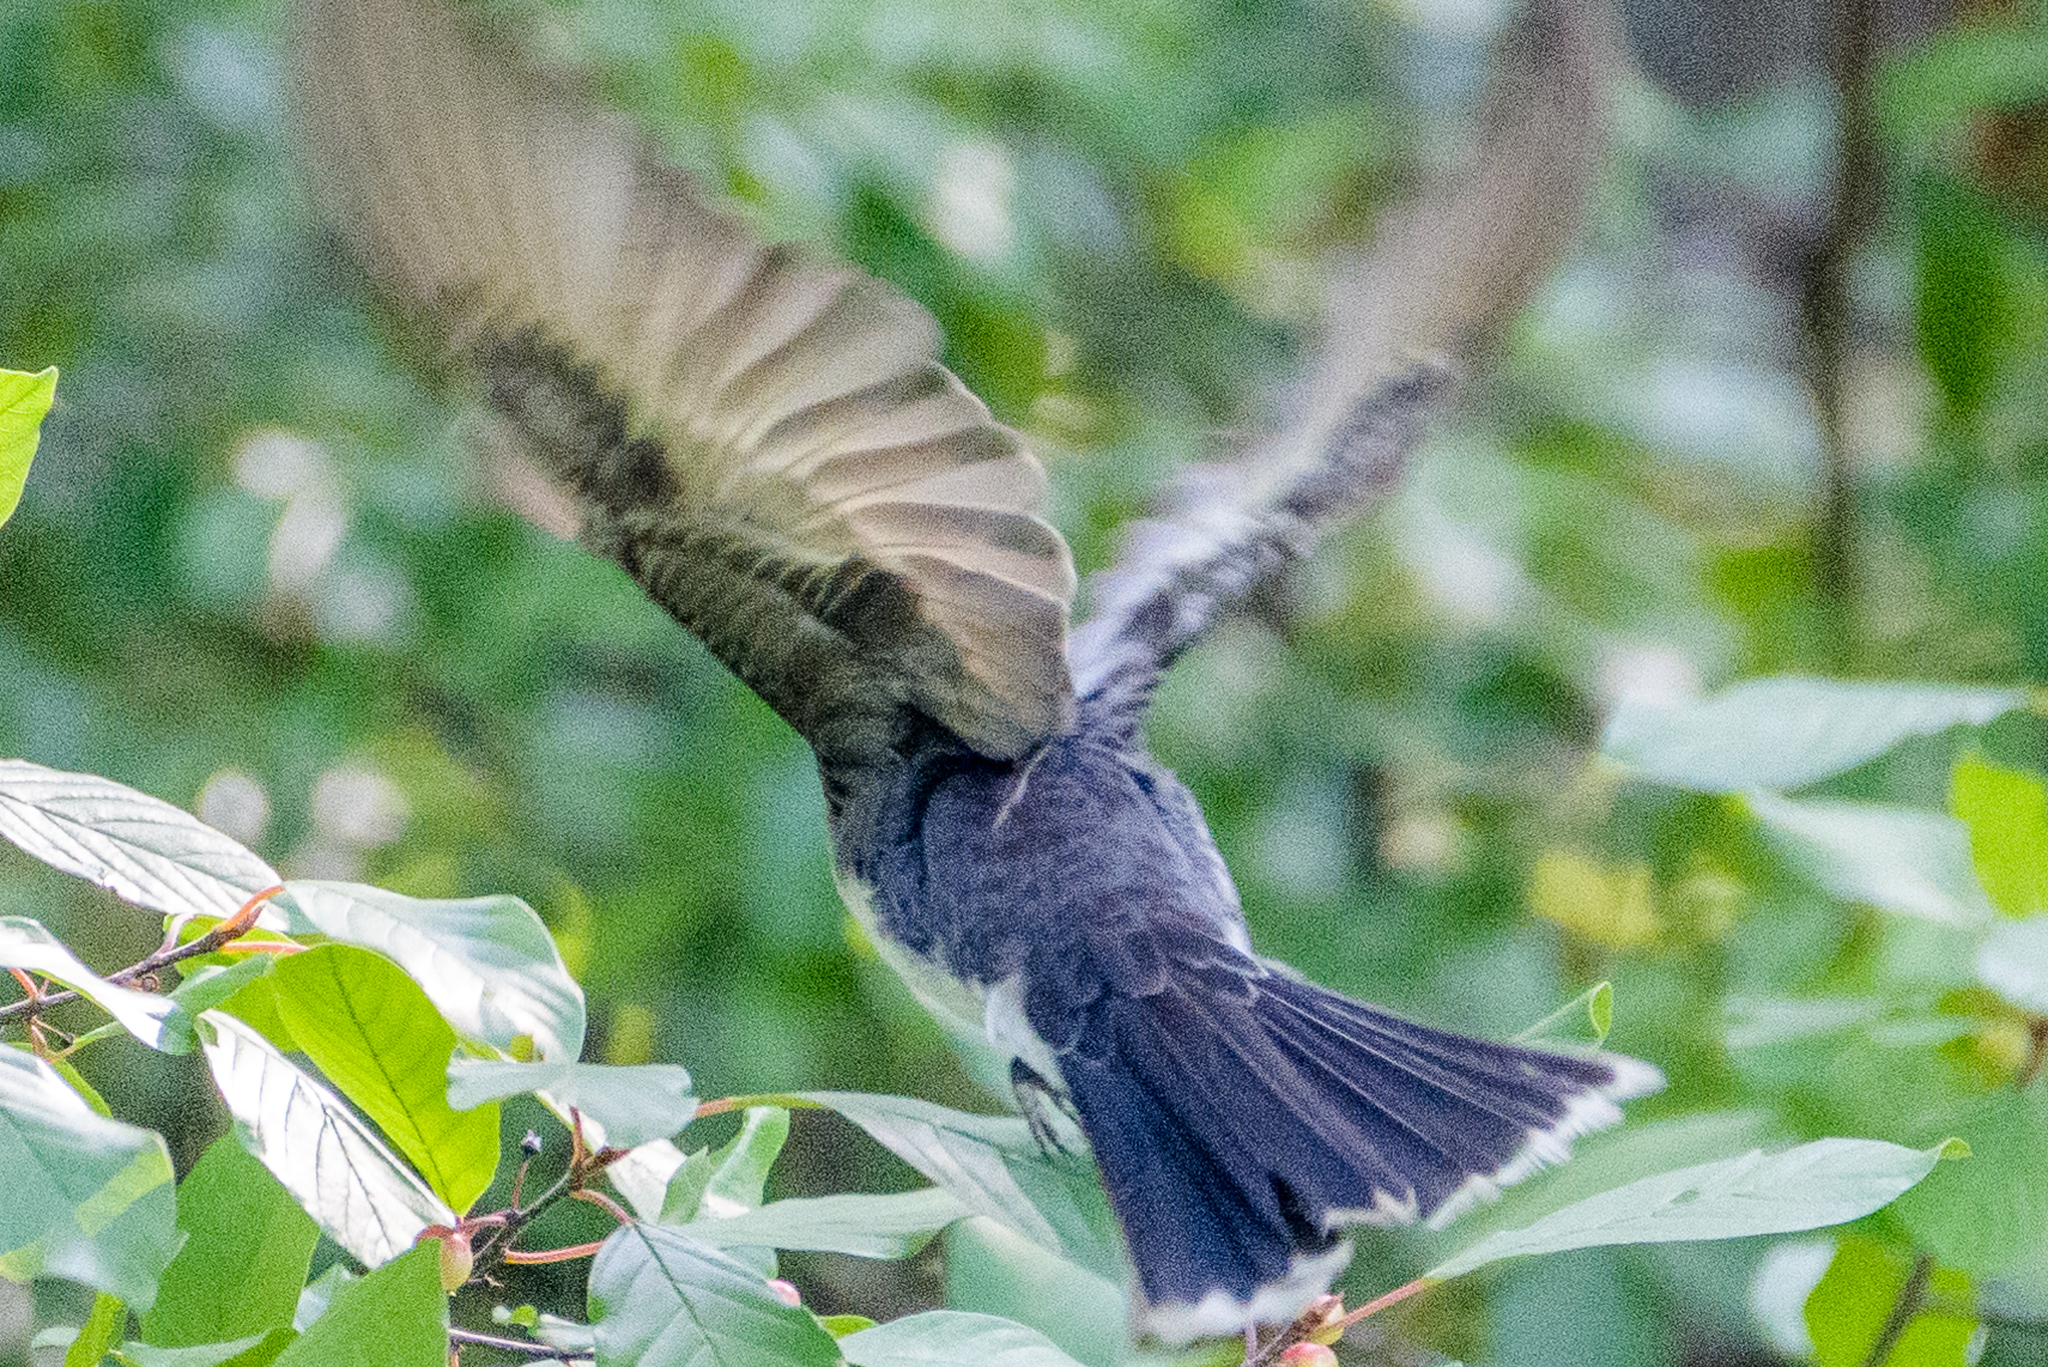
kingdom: Animalia
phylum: Chordata
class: Aves
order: Passeriformes
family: Tyrannidae
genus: Tyrannus
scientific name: Tyrannus tyrannus
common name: Eastern kingbird
